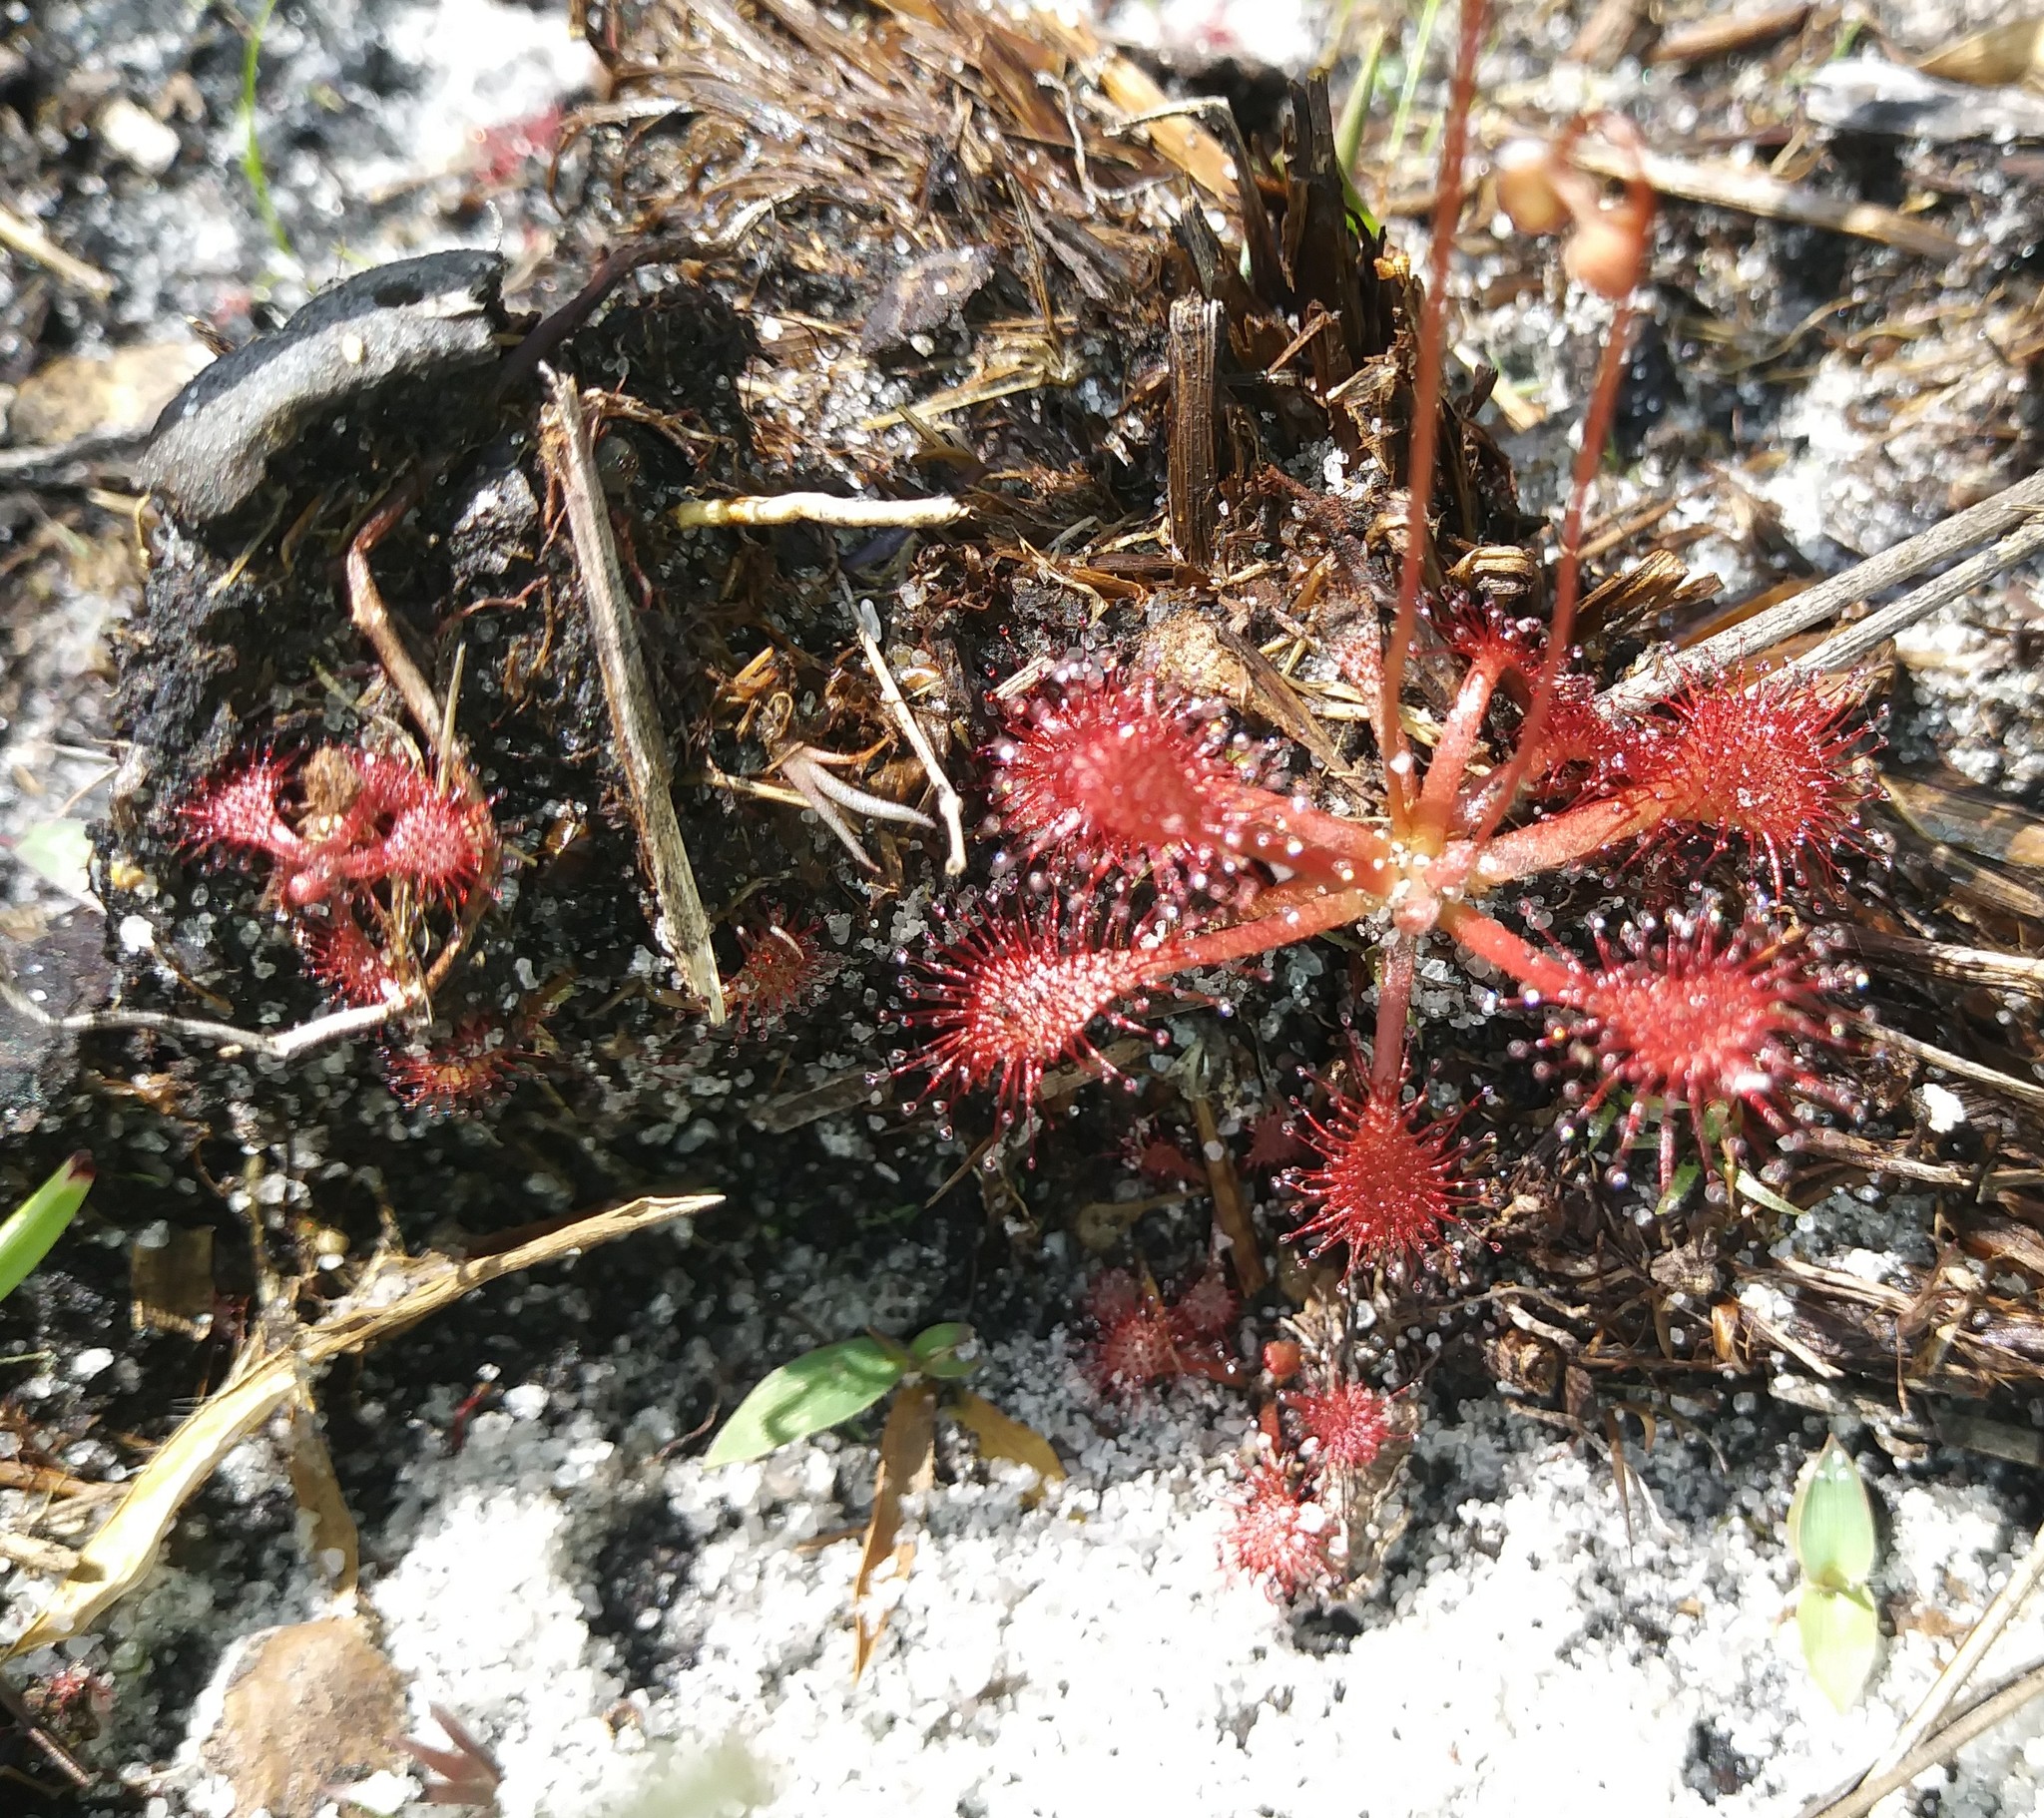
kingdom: Plantae
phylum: Tracheophyta
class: Magnoliopsida
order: Caryophyllales
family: Droseraceae
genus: Drosera
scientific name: Drosera capillaris
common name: Pink sundew
